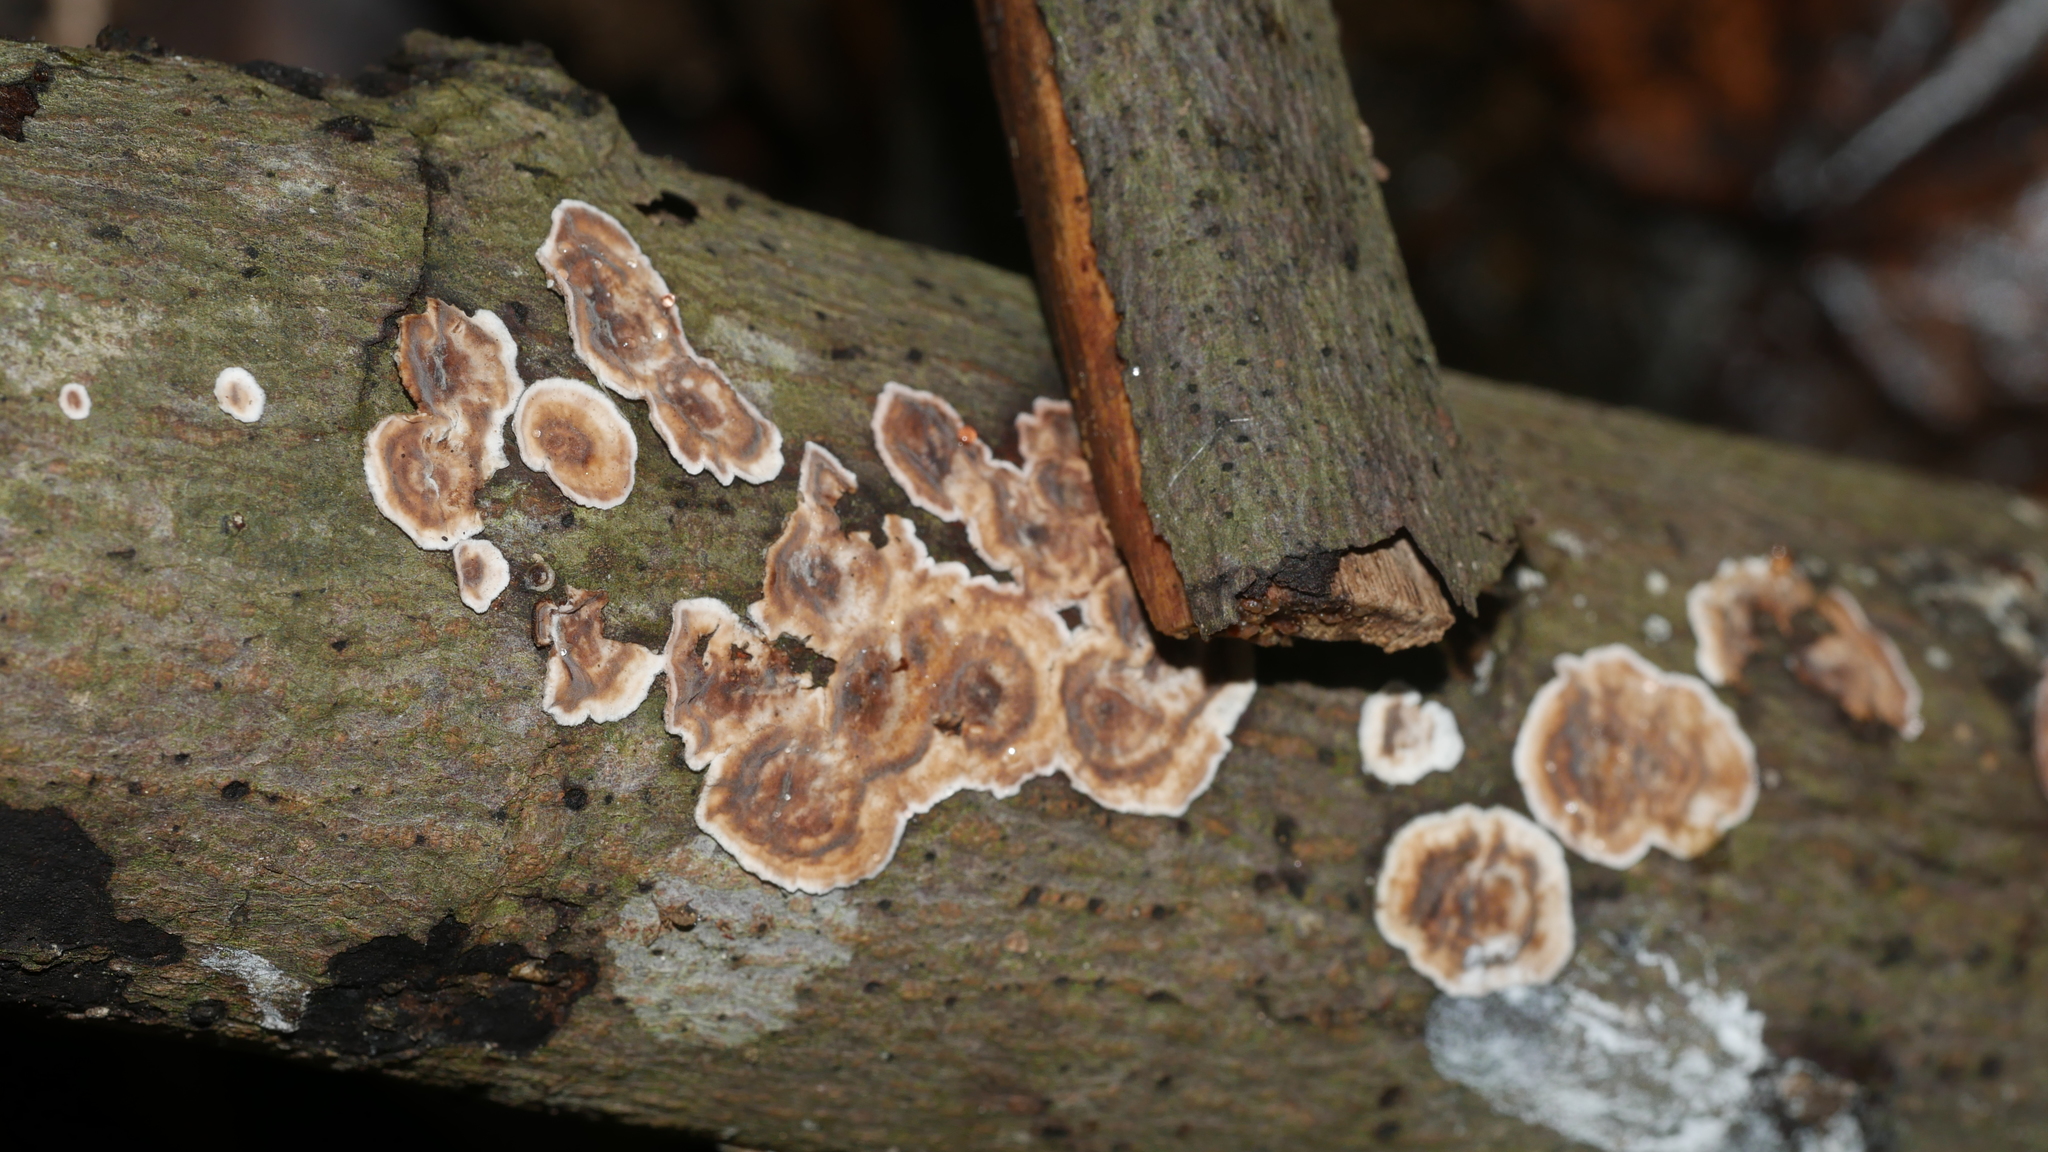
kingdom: Fungi
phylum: Basidiomycota
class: Agaricomycetes
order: Russulales
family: Peniophoraceae
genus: Peniophora
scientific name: Peniophora albobadia
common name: Giraffe spots
